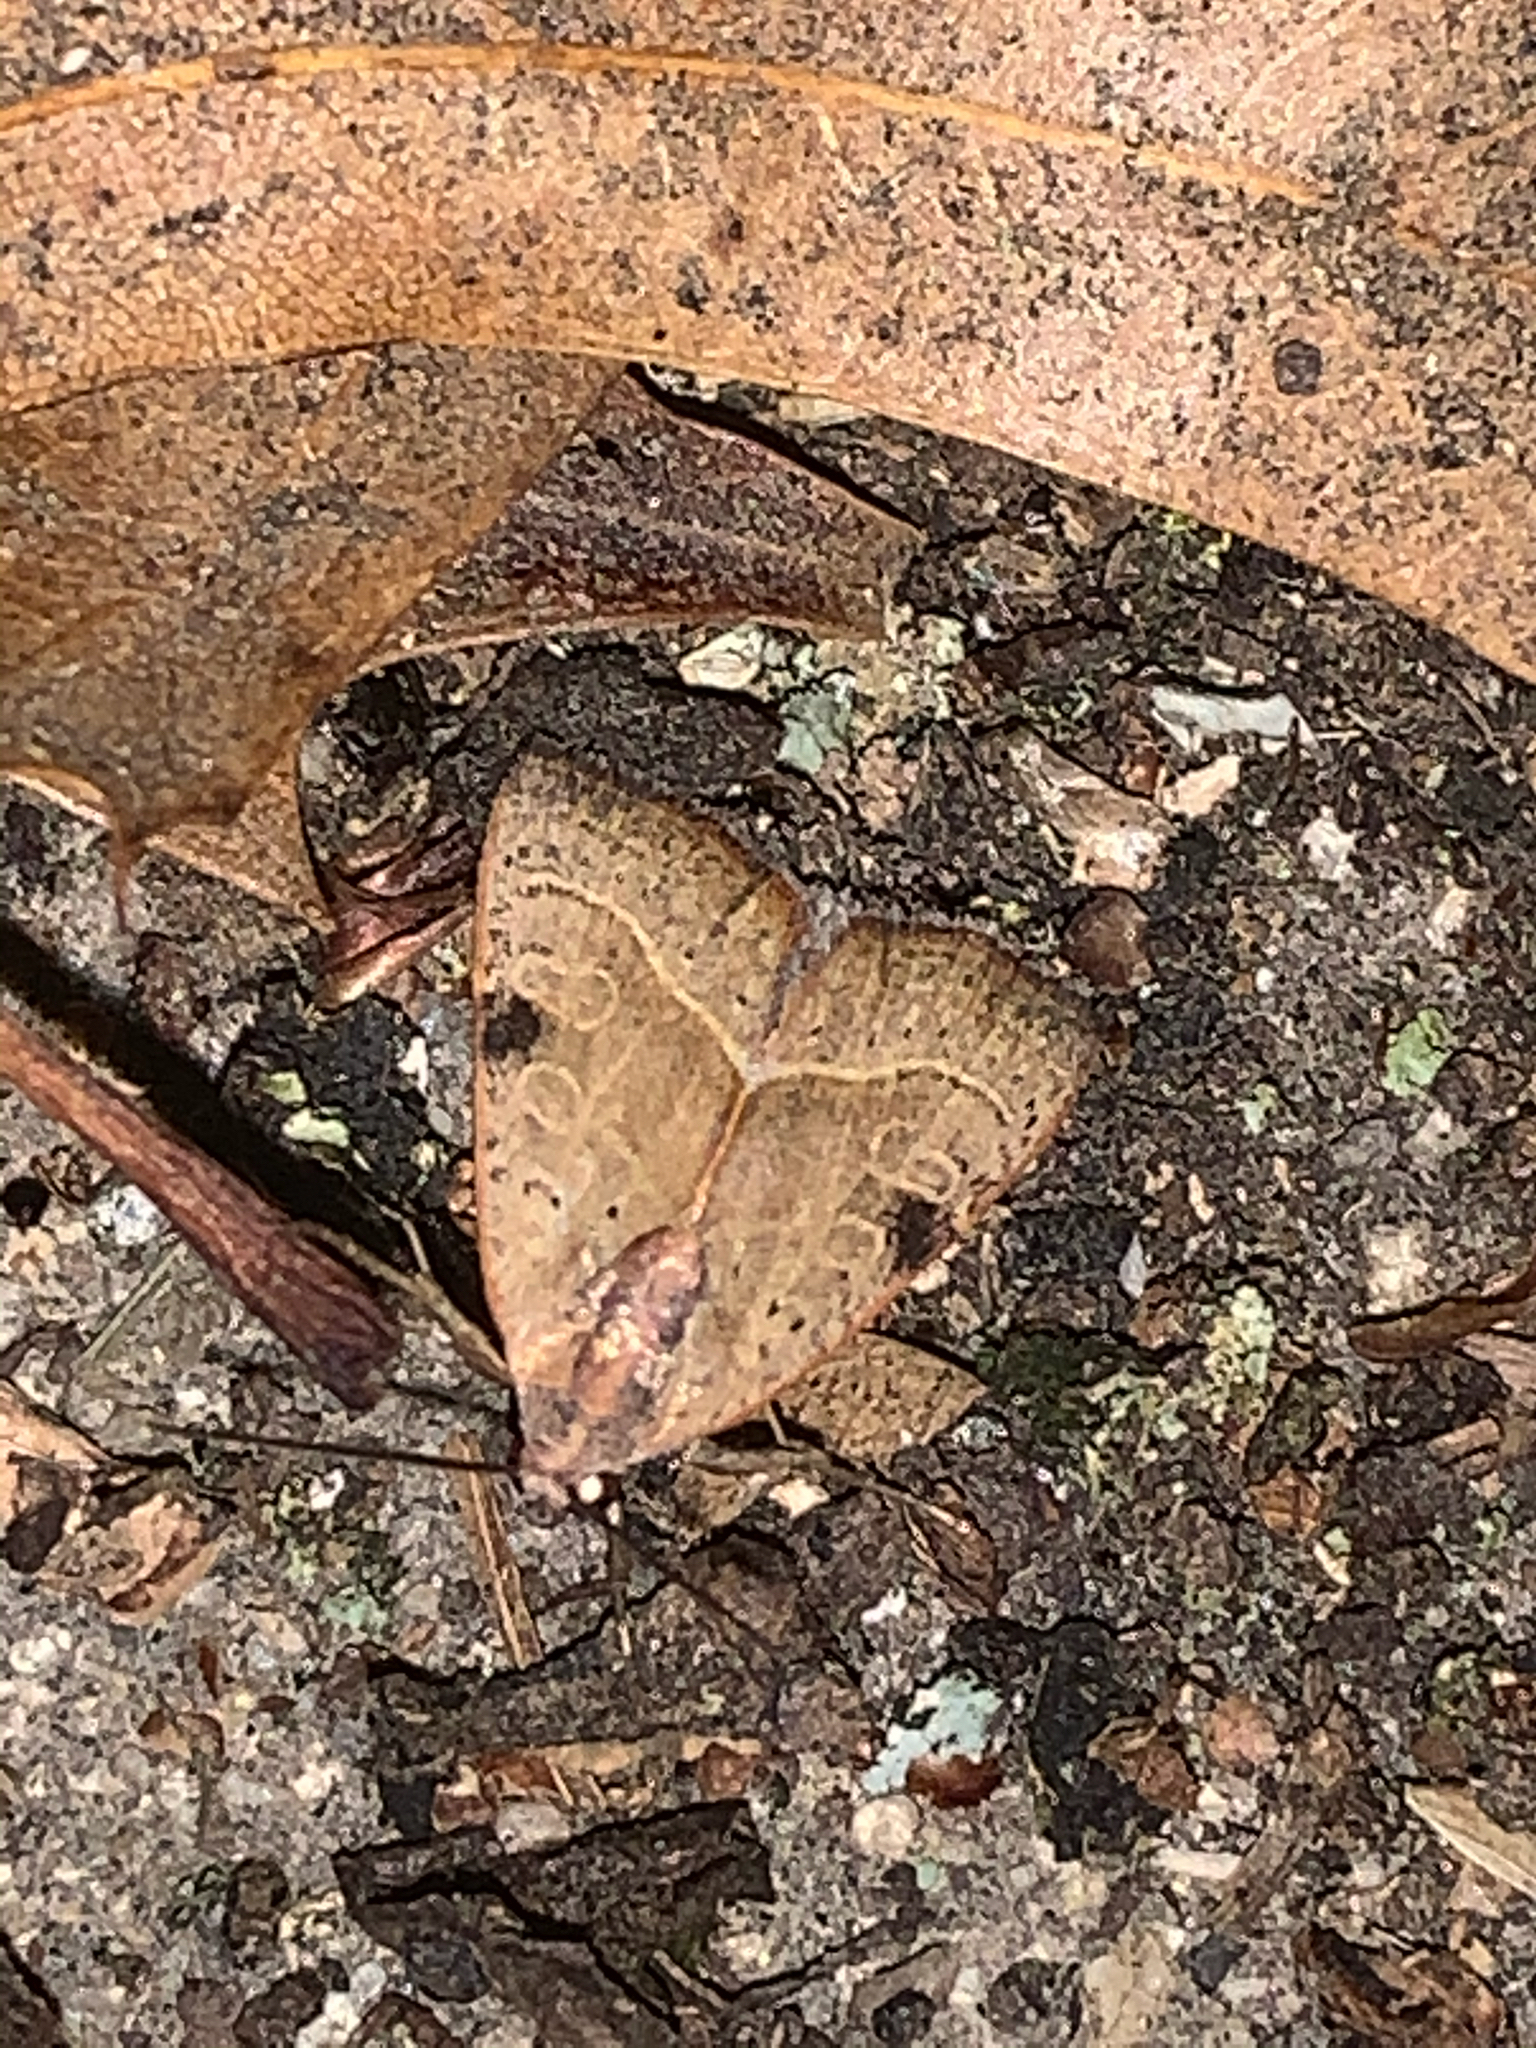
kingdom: Animalia
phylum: Arthropoda
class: Insecta
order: Lepidoptera
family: Noctuidae
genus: Galgula
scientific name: Galgula partita
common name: Wedgeling
